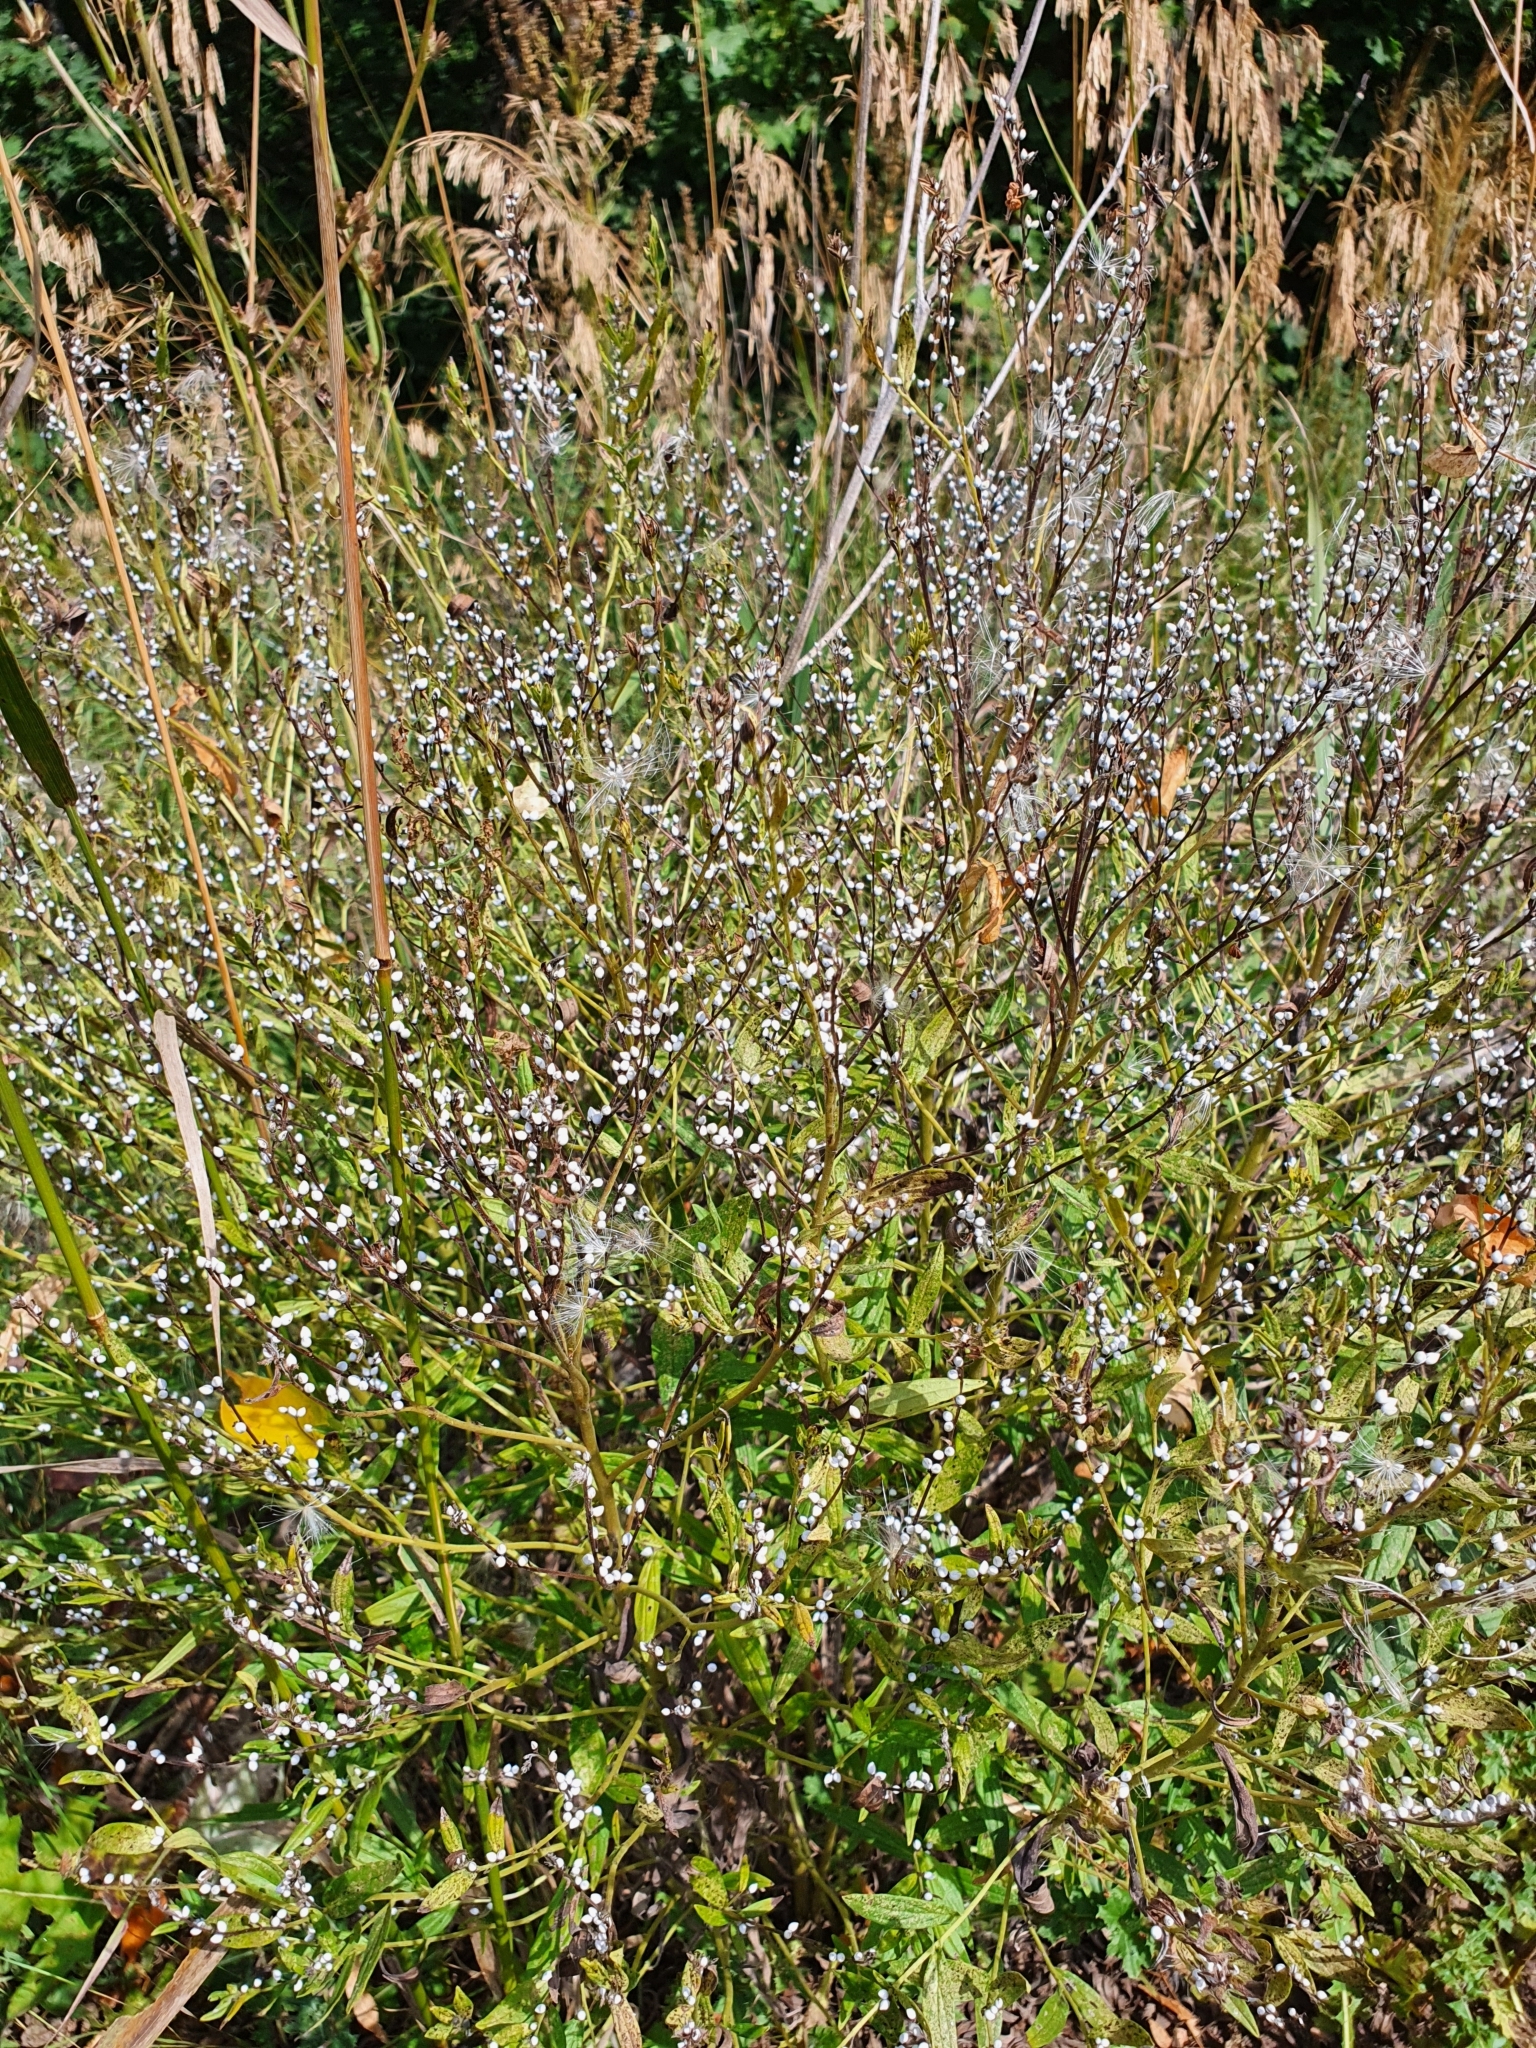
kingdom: Plantae
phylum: Tracheophyta
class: Magnoliopsida
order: Boraginales
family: Boraginaceae
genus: Lithospermum
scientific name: Lithospermum officinale
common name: Common gromwell
